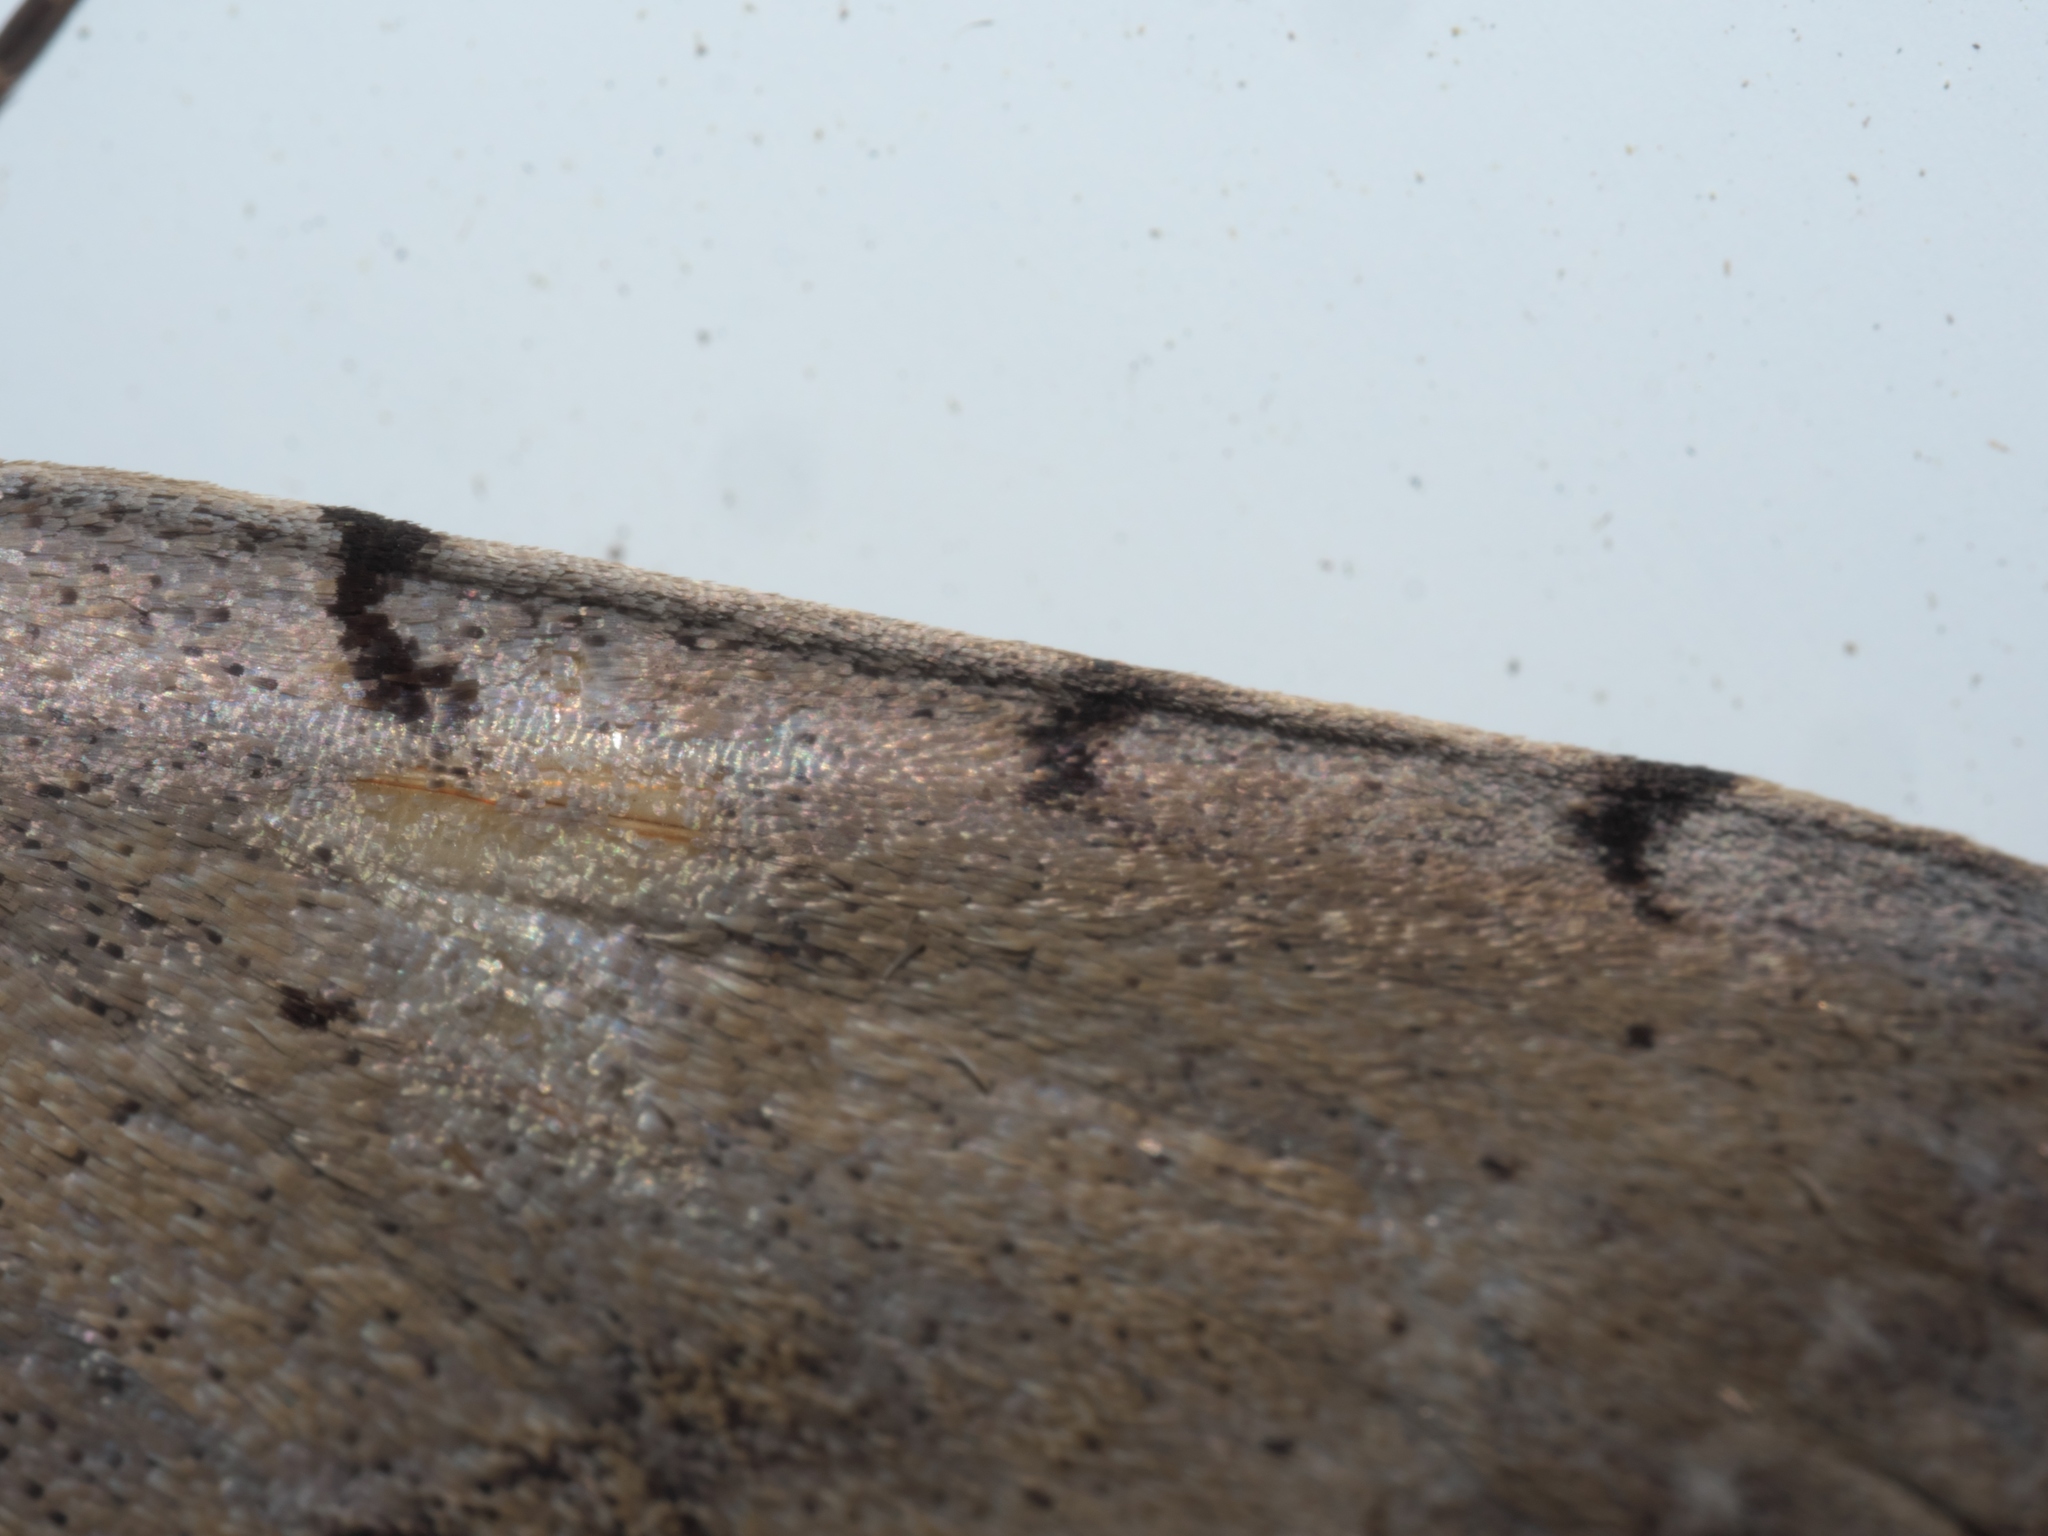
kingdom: Animalia
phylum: Arthropoda
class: Insecta
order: Lepidoptera
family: Erebidae
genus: Spiloloma
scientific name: Spiloloma lunilinea
